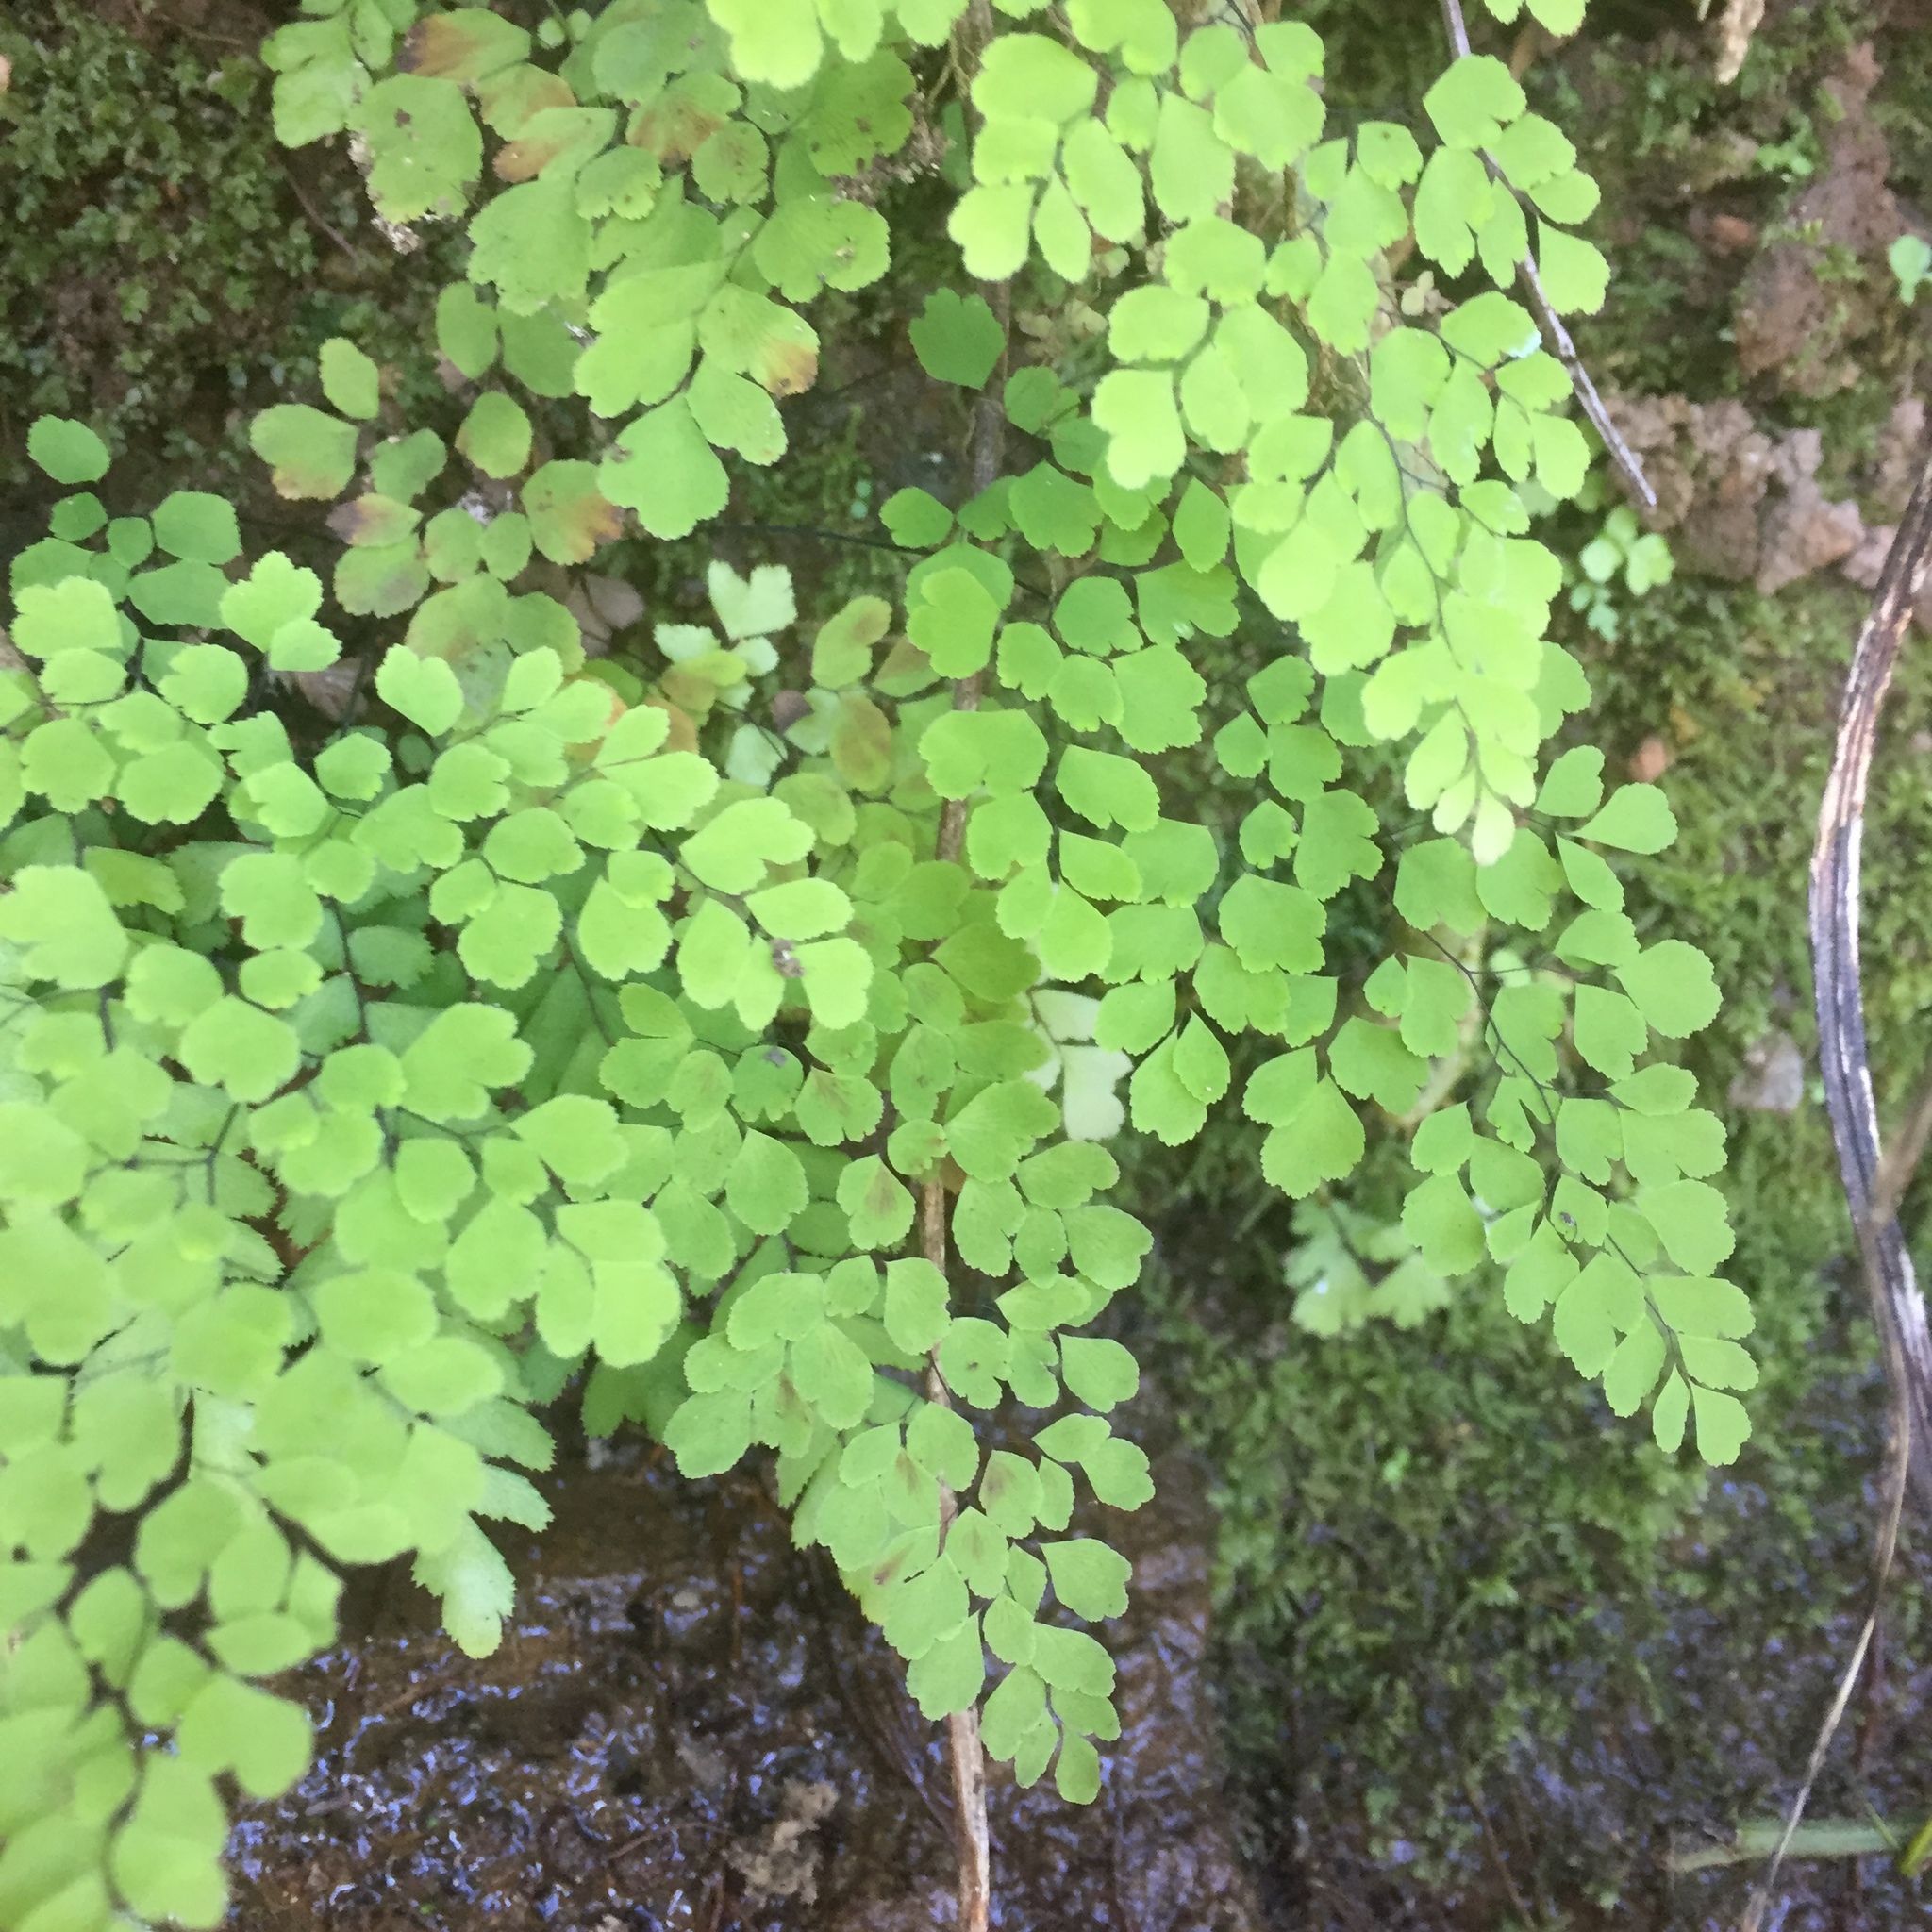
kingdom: Plantae
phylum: Tracheophyta
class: Polypodiopsida
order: Polypodiales
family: Pteridaceae
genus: Adiantum
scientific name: Adiantum capillus-veneris
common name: Maidenhair fern
